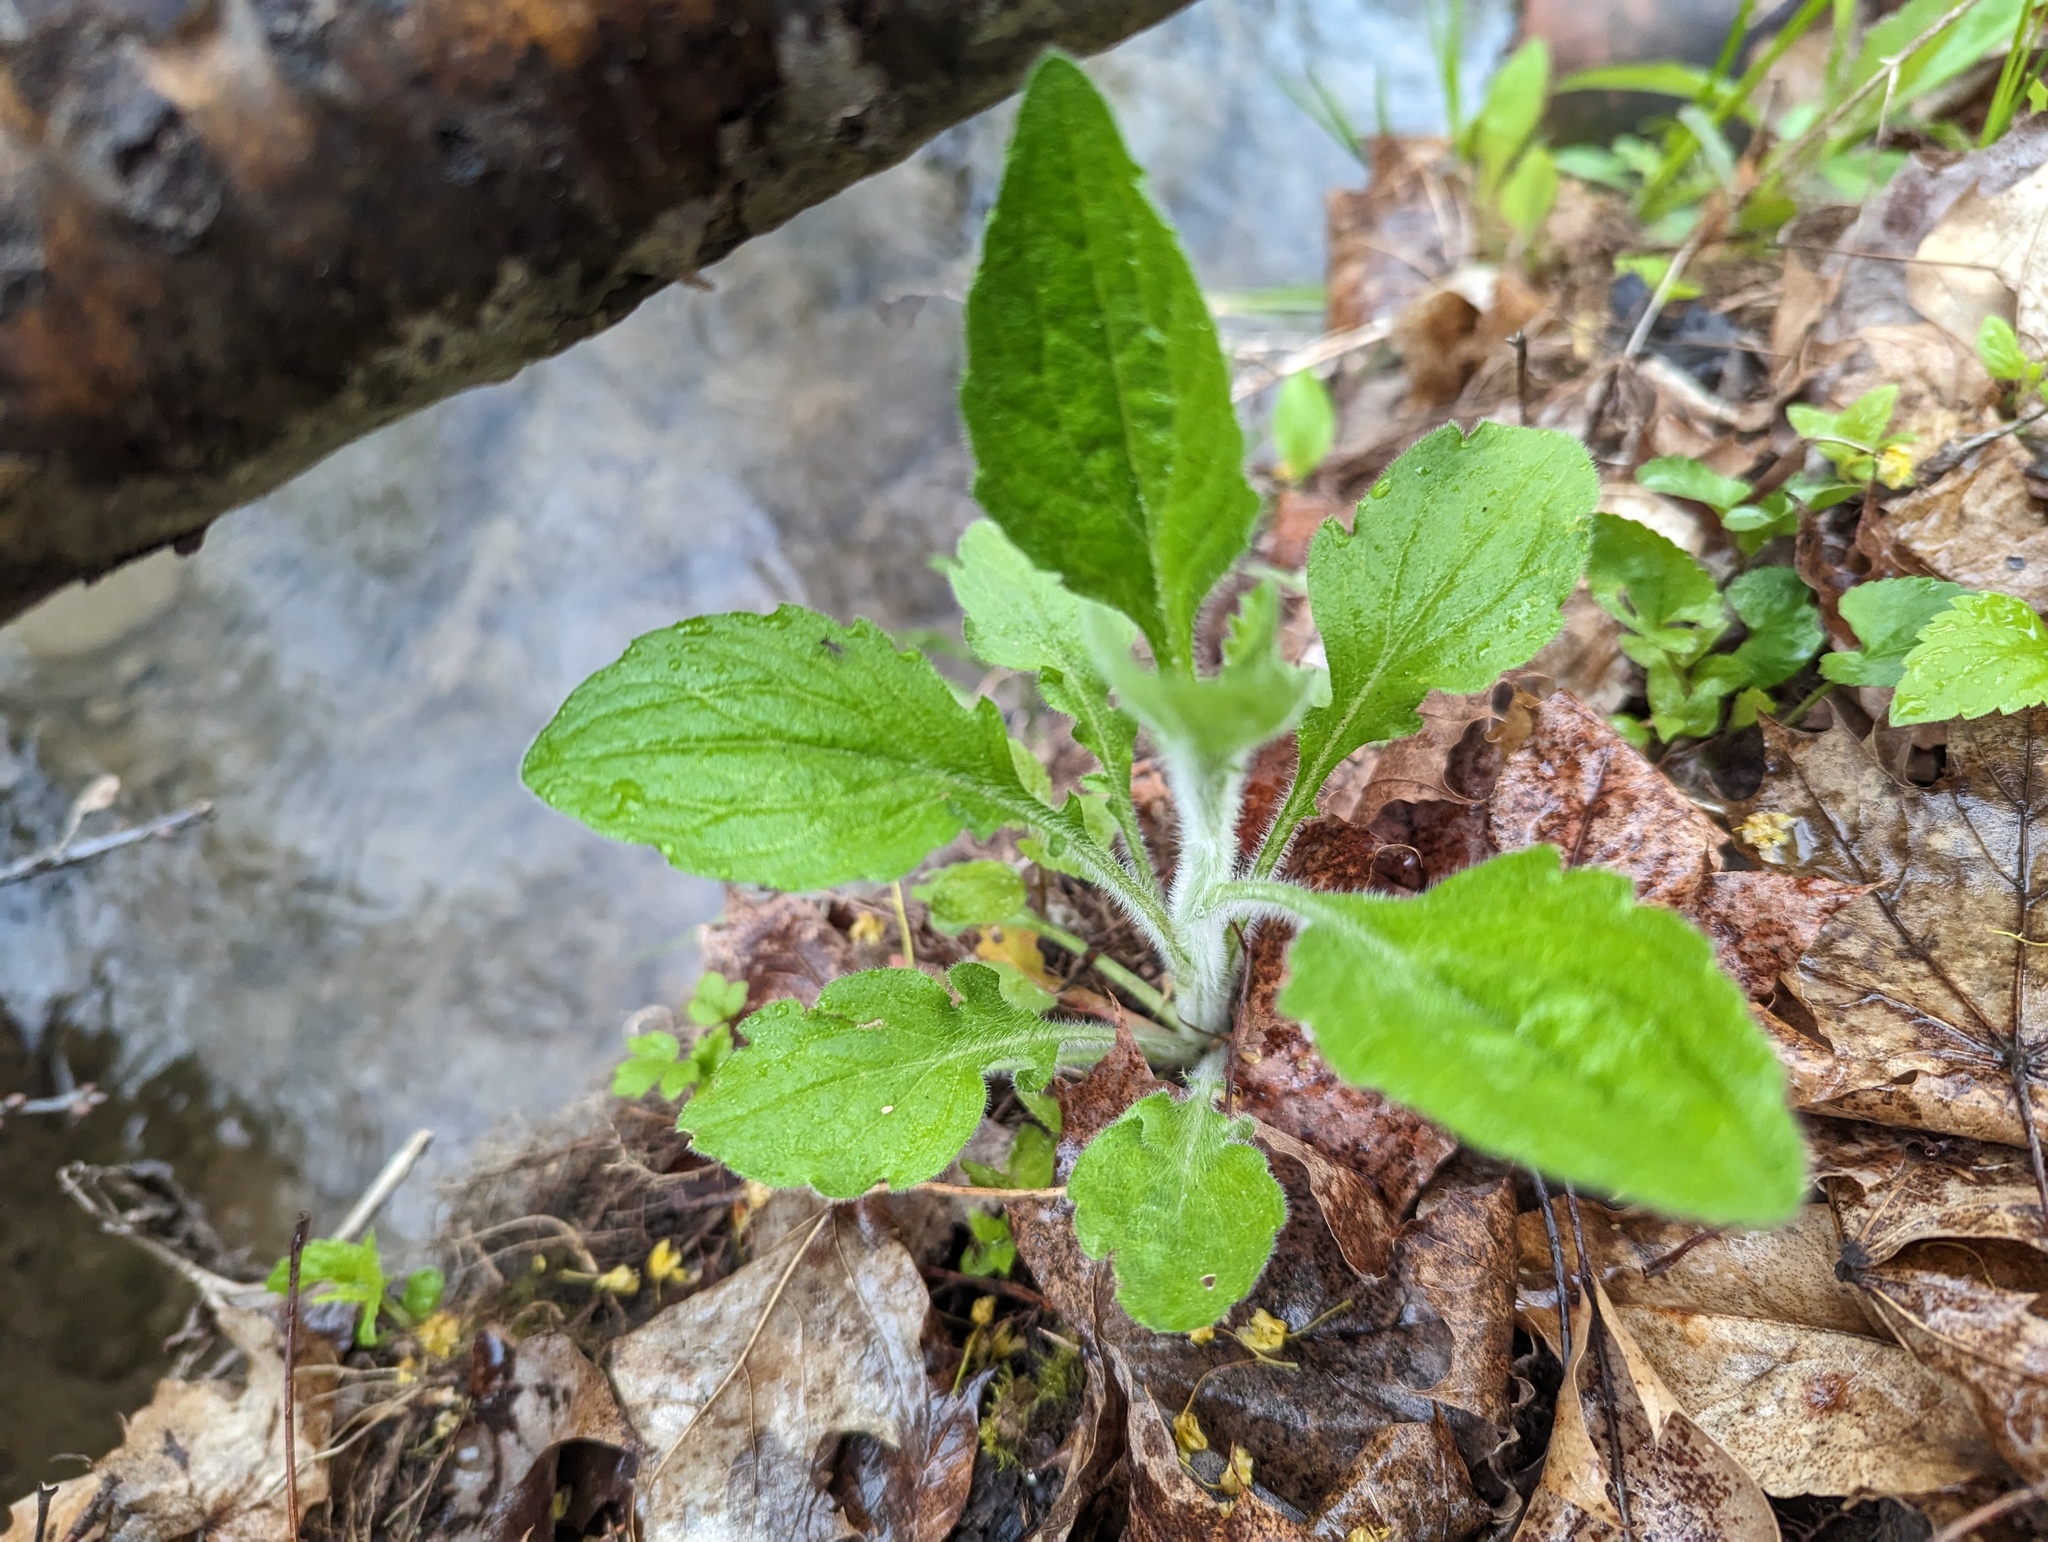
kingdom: Plantae
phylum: Tracheophyta
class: Magnoliopsida
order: Asterales
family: Asteraceae
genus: Erigeron
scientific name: Erigeron annuus
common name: Tall fleabane
